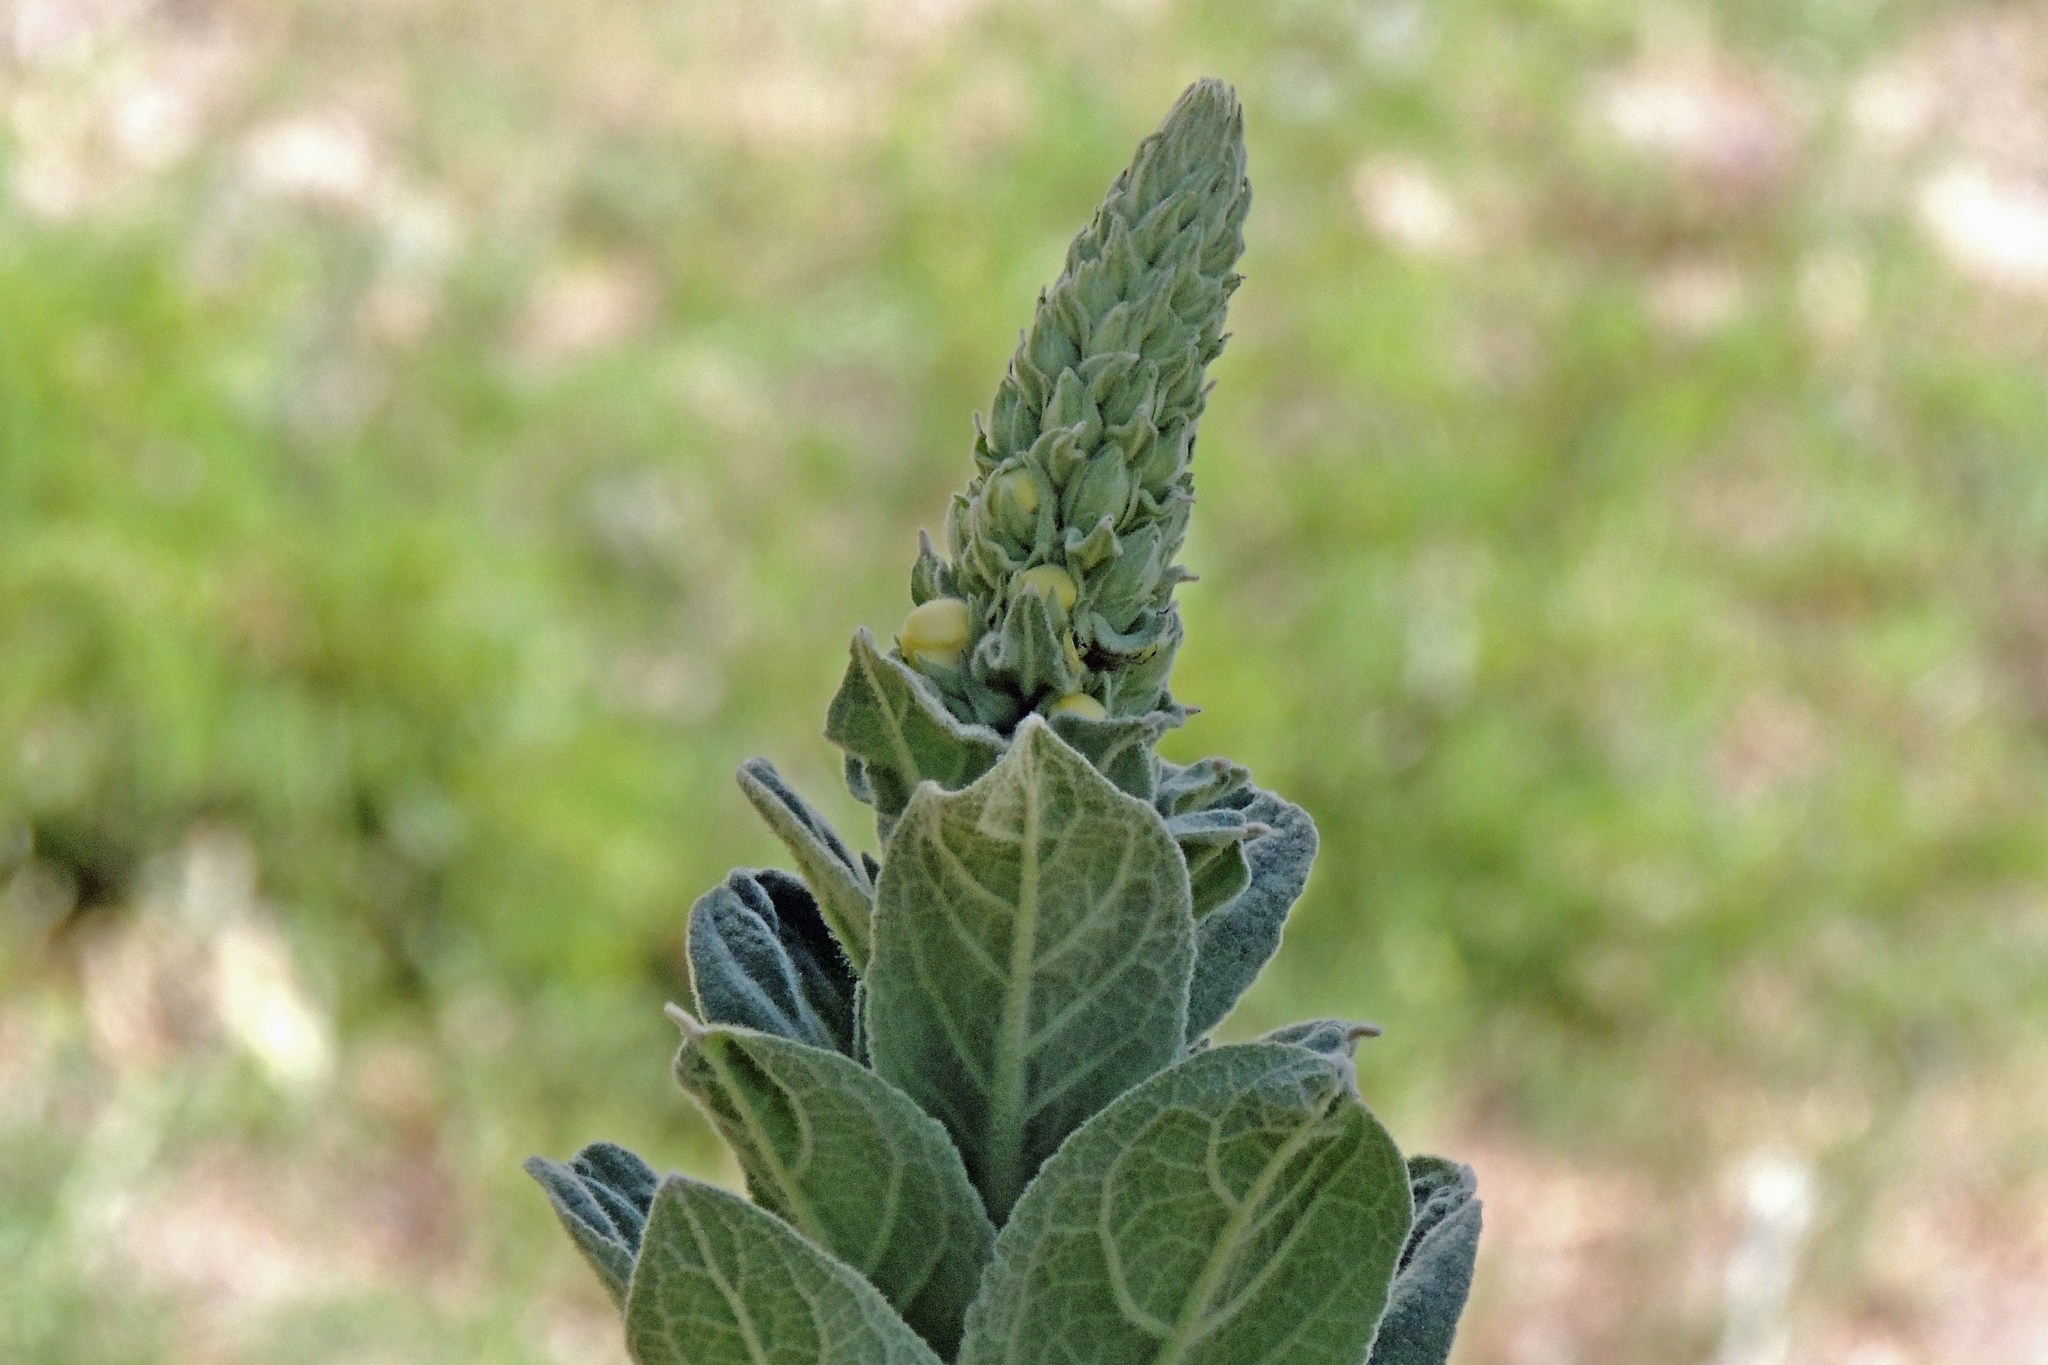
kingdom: Plantae
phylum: Tracheophyta
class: Magnoliopsida
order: Lamiales
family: Scrophulariaceae
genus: Verbascum
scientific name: Verbascum thapsus
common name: Common mullein
